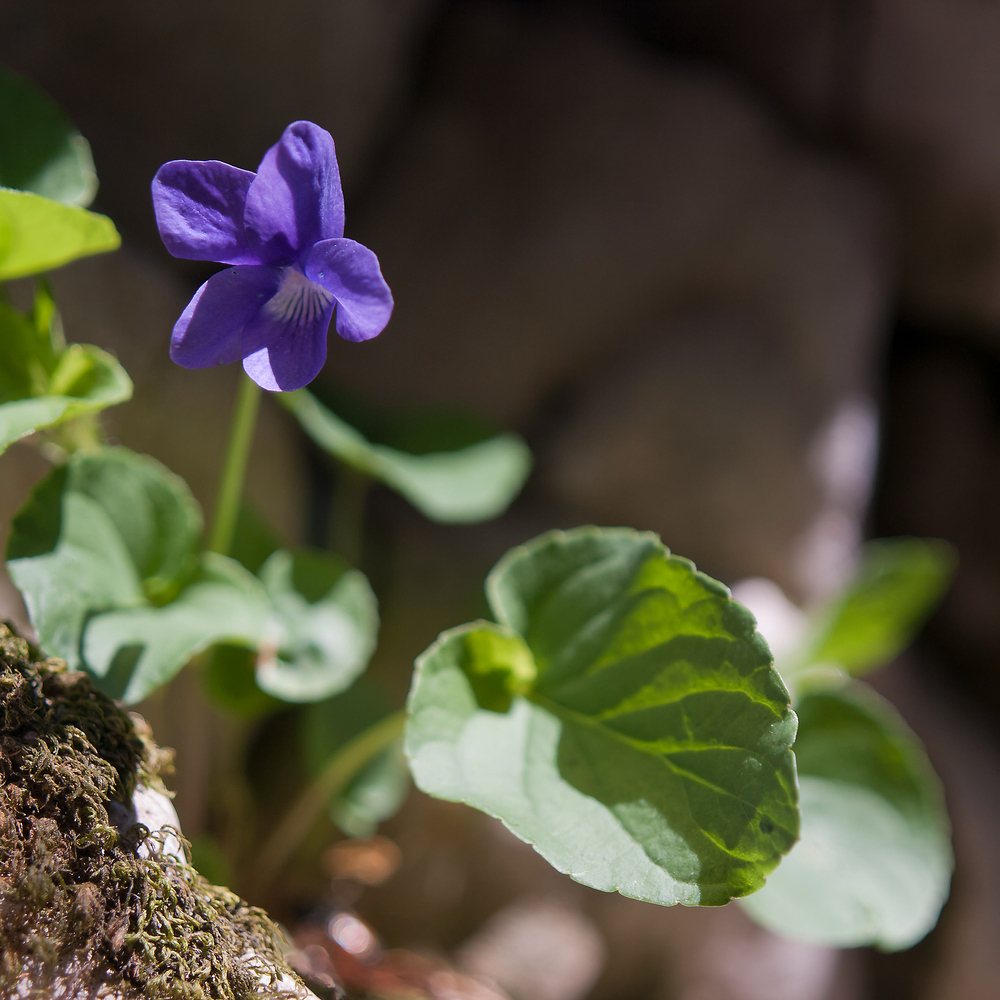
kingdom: Plantae
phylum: Tracheophyta
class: Magnoliopsida
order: Malpighiales
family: Violaceae
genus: Viola
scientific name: Viola riviniana
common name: Common dog-violet
